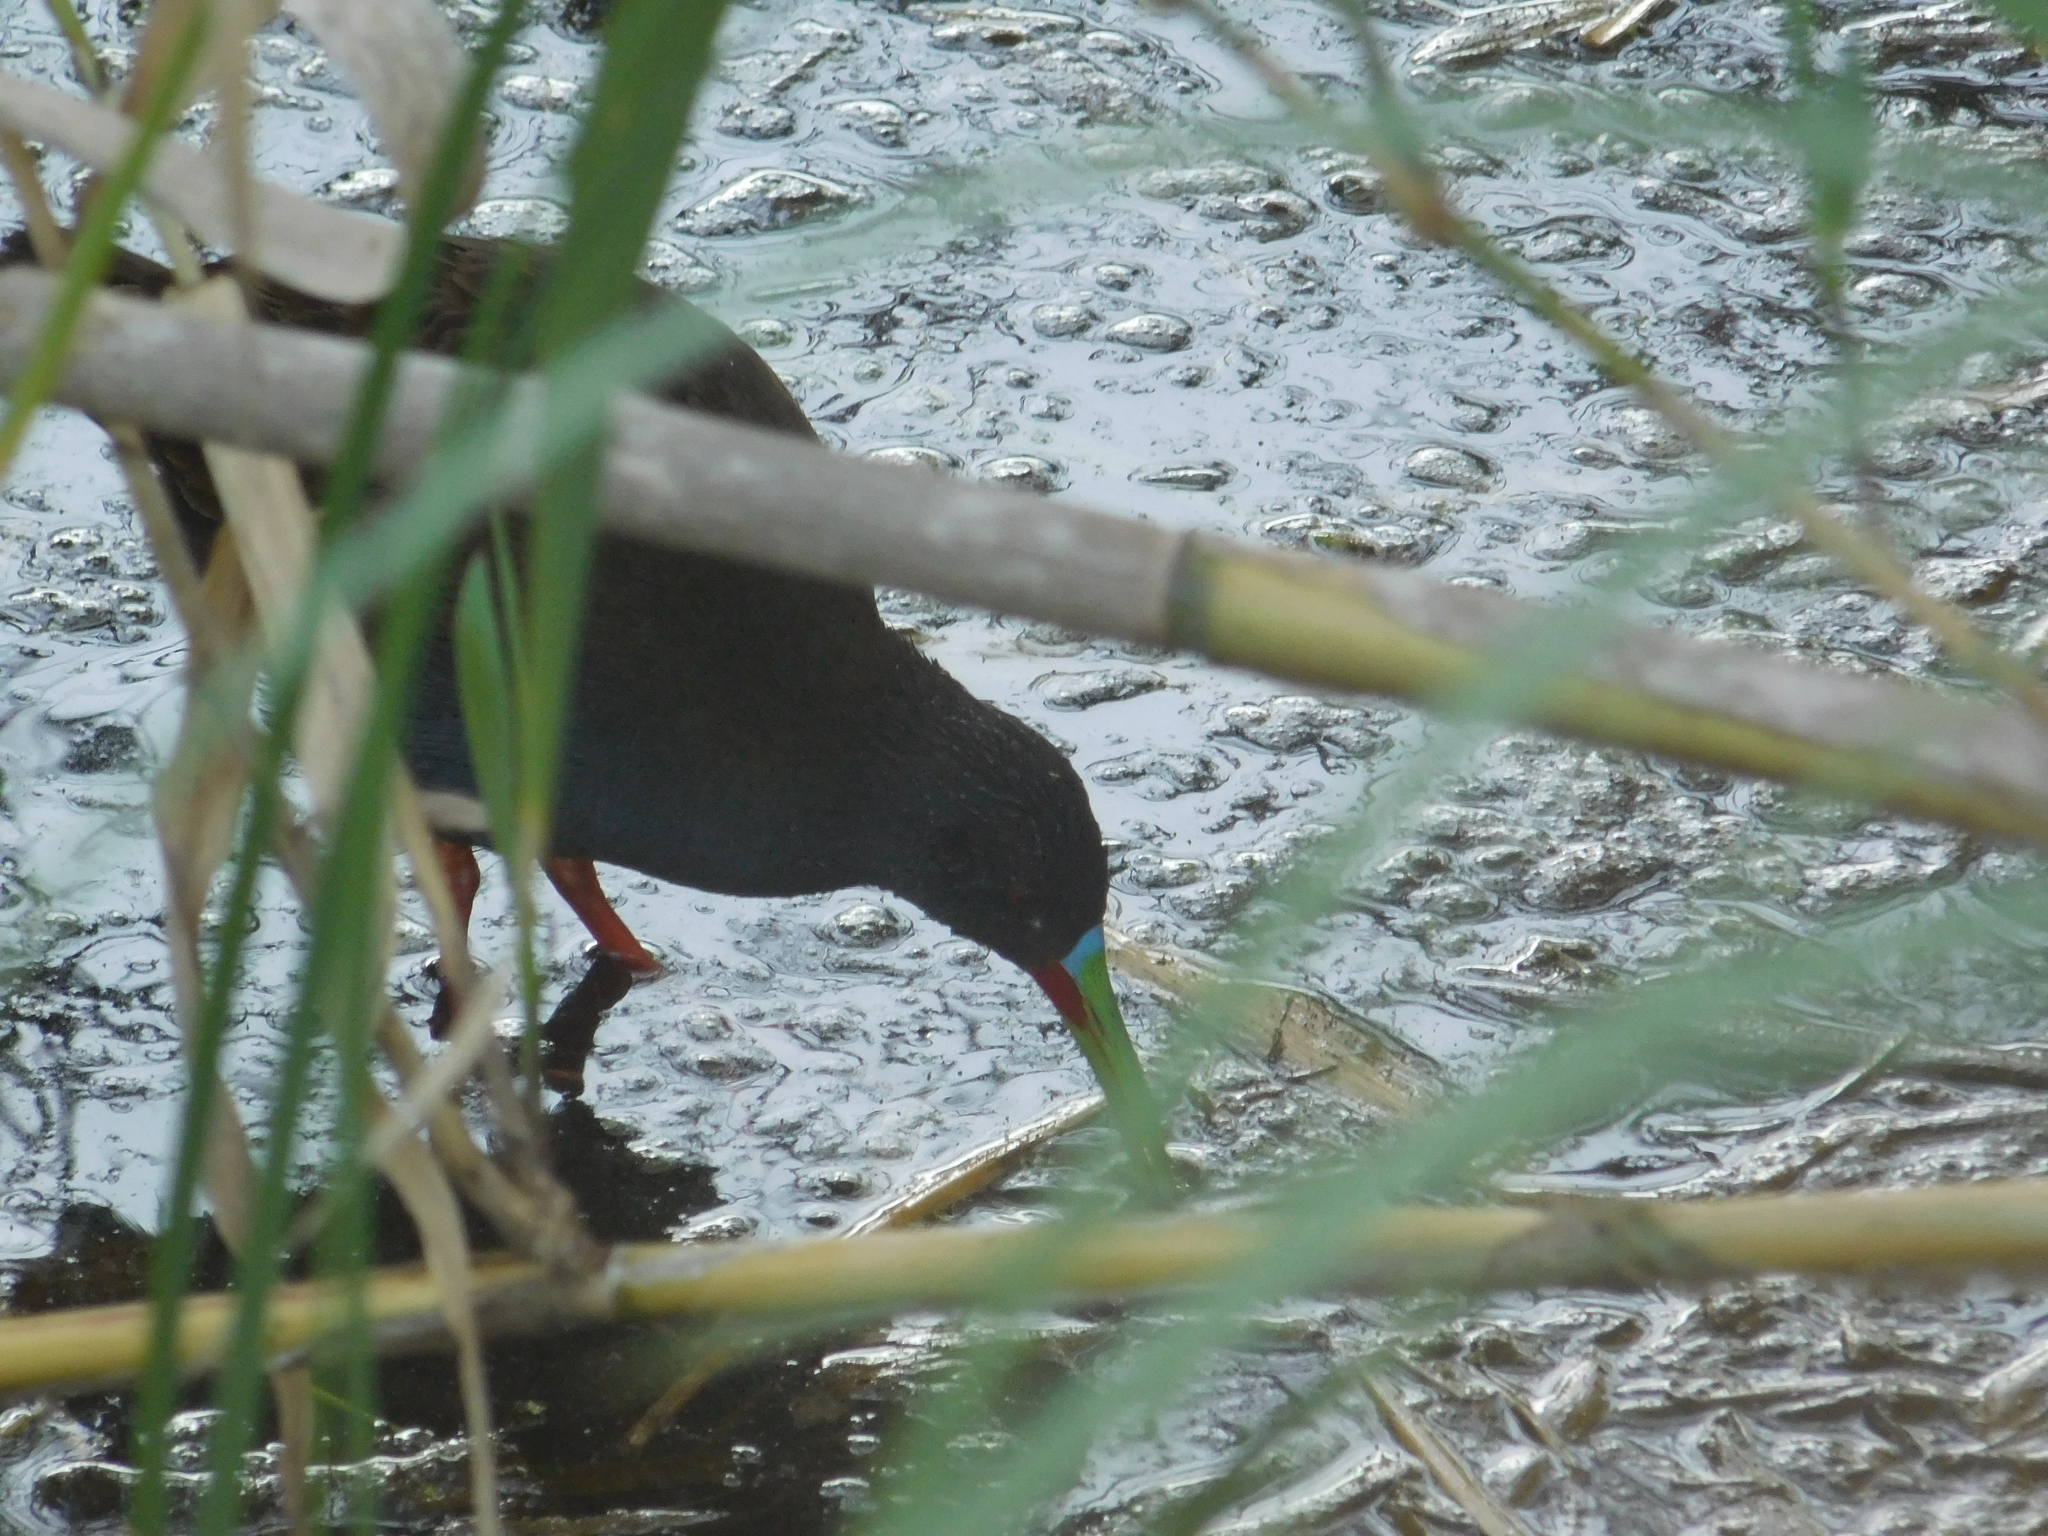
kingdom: Animalia
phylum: Chordata
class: Aves
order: Gruiformes
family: Rallidae
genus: Pardirallus
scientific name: Pardirallus sanguinolentus
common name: Plumbeous rail
